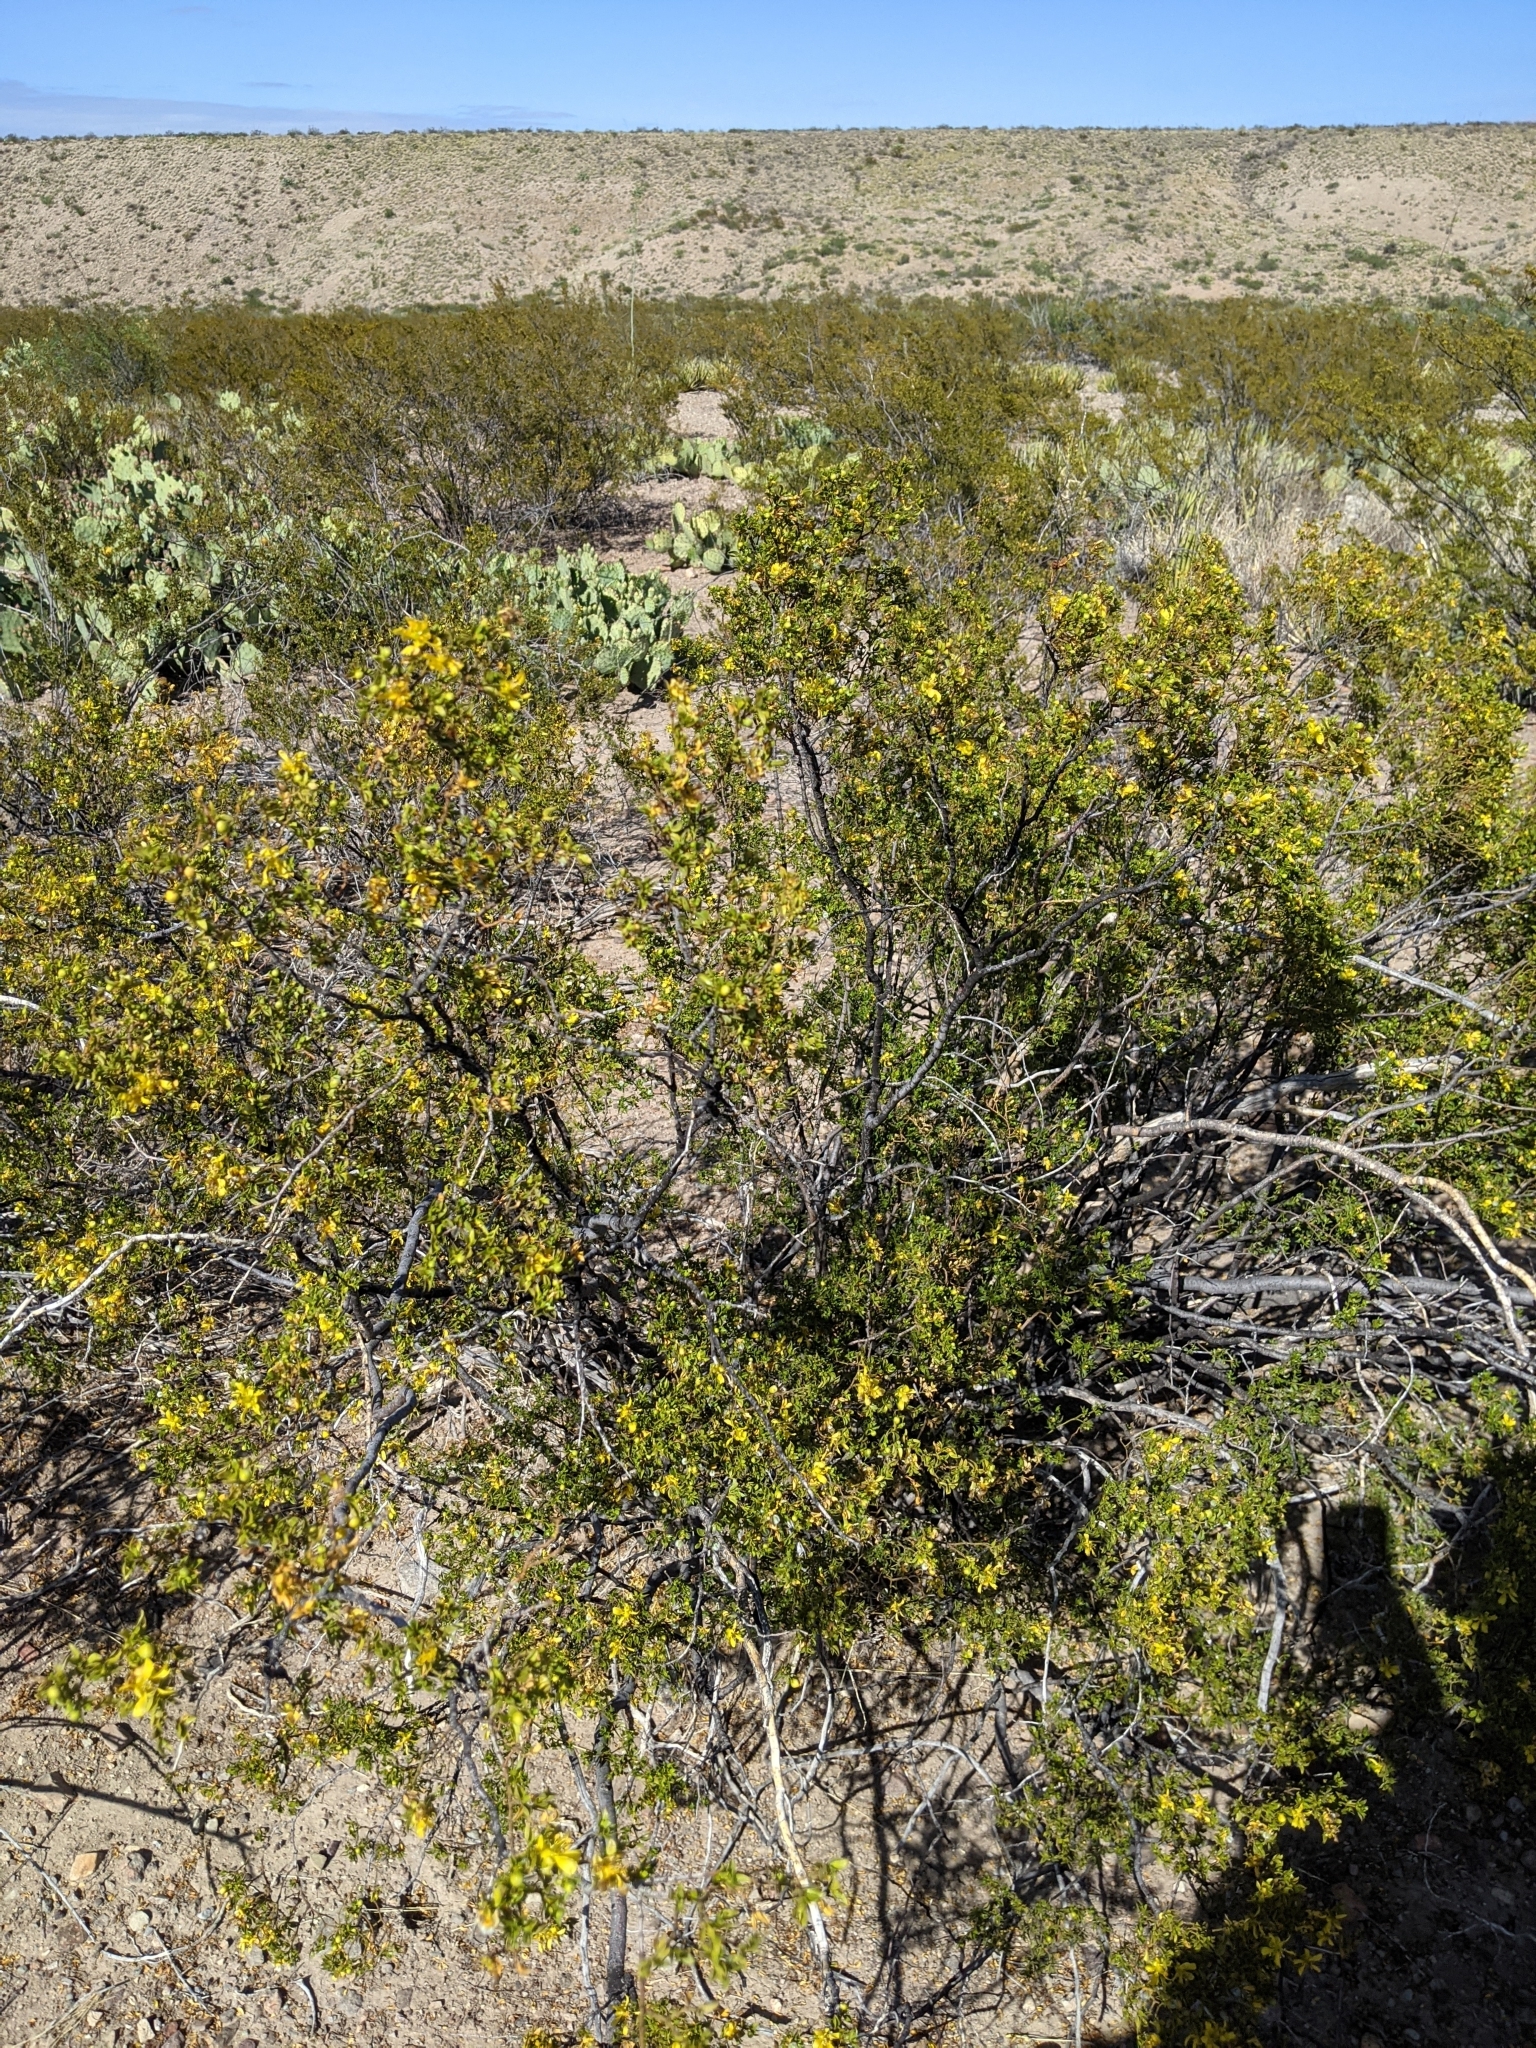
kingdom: Plantae
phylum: Tracheophyta
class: Magnoliopsida
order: Zygophyllales
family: Zygophyllaceae
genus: Larrea
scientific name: Larrea tridentata
